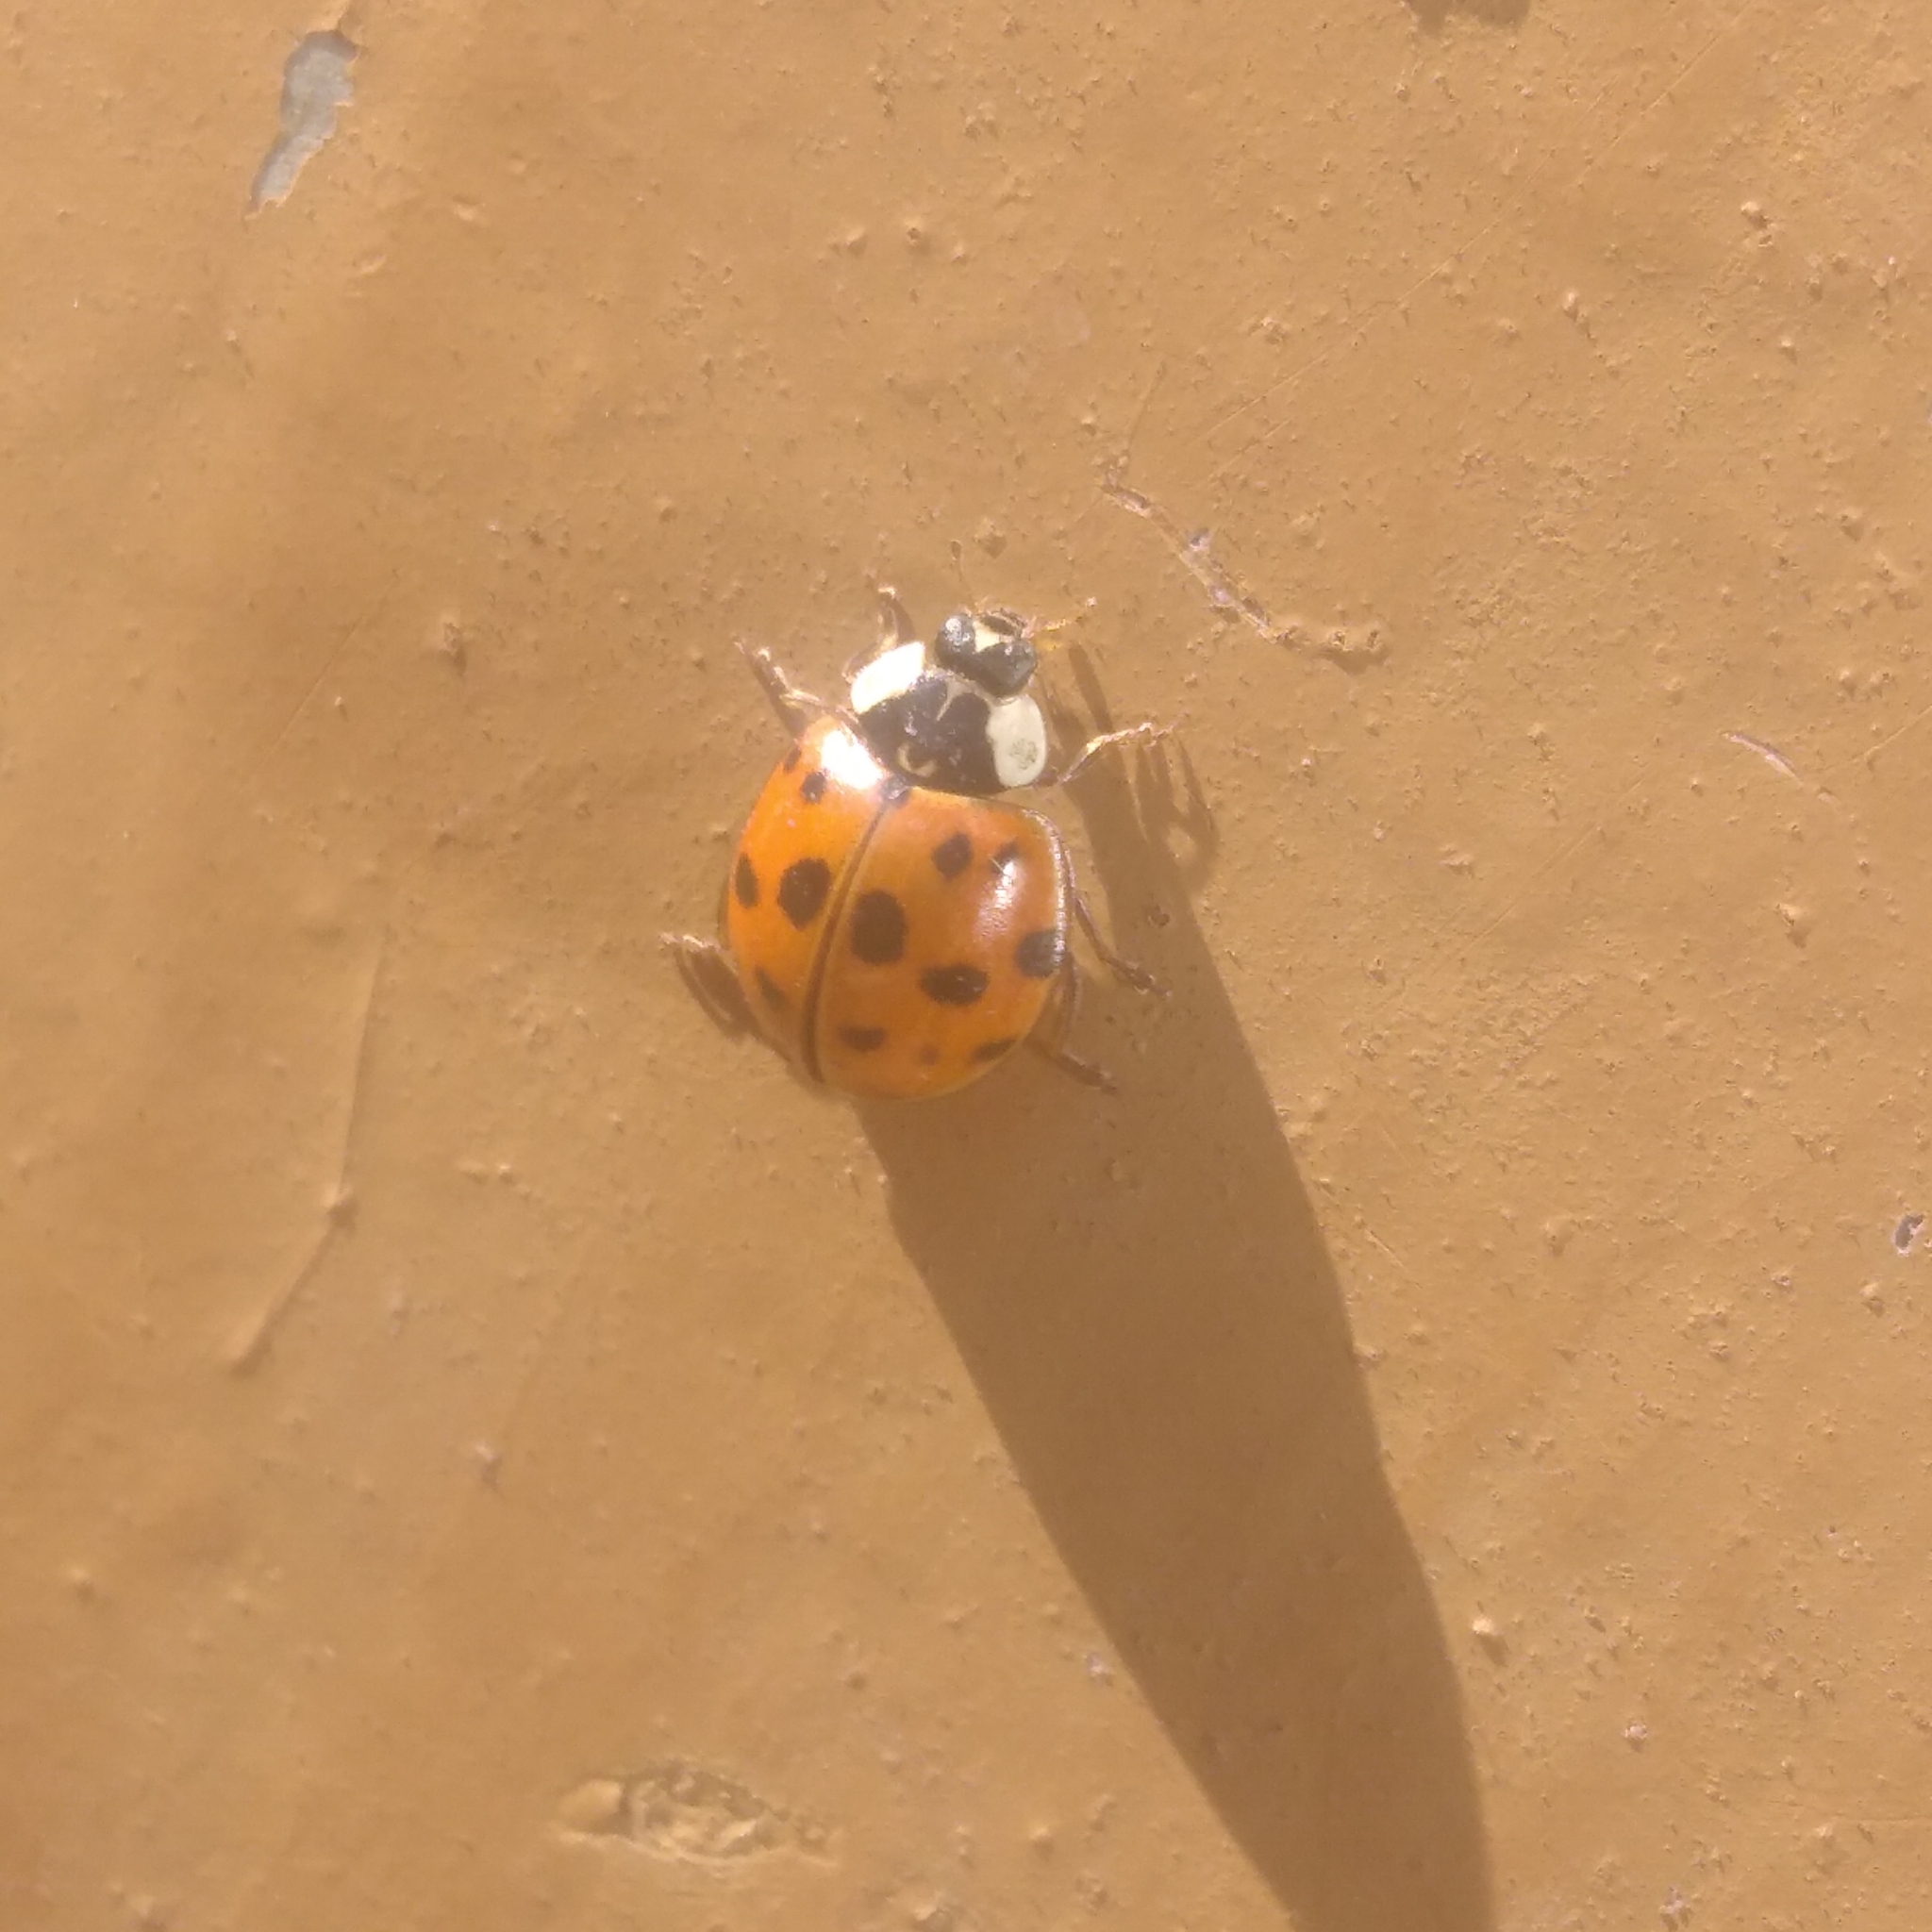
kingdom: Animalia
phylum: Arthropoda
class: Insecta
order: Coleoptera
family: Coccinellidae
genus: Harmonia
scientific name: Harmonia axyridis
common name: Harlequin ladybird
